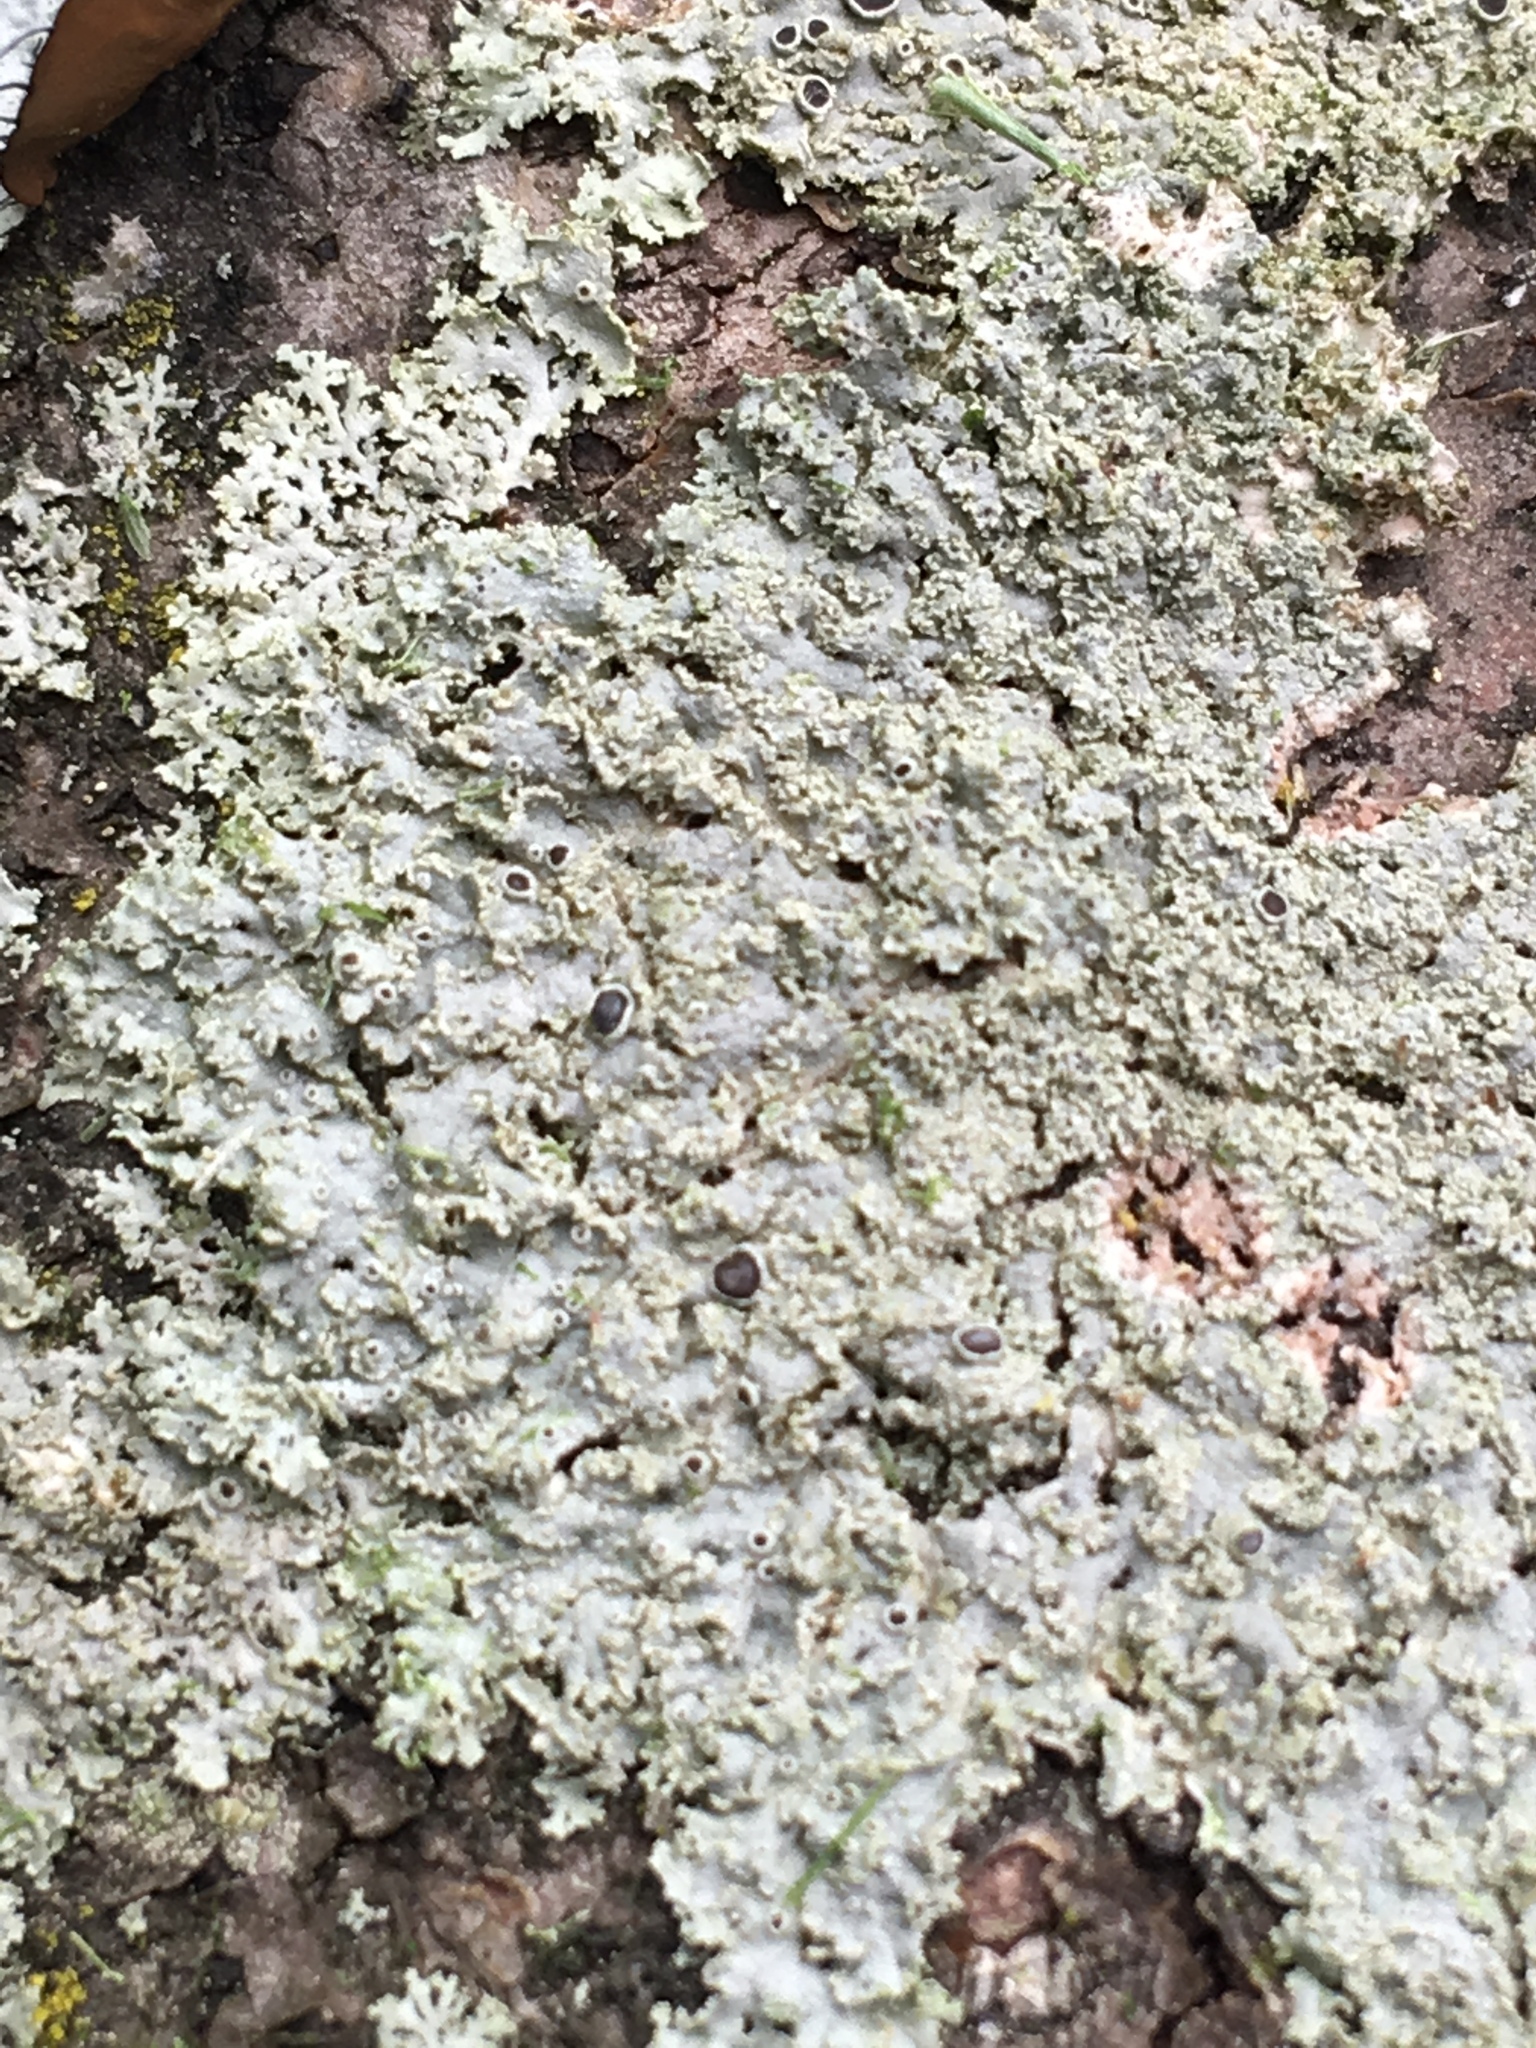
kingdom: Fungi
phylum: Ascomycota
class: Lecanoromycetes
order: Caliciales
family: Physciaceae
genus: Physcia
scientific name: Physcia millegrana
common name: Rosette lichen
